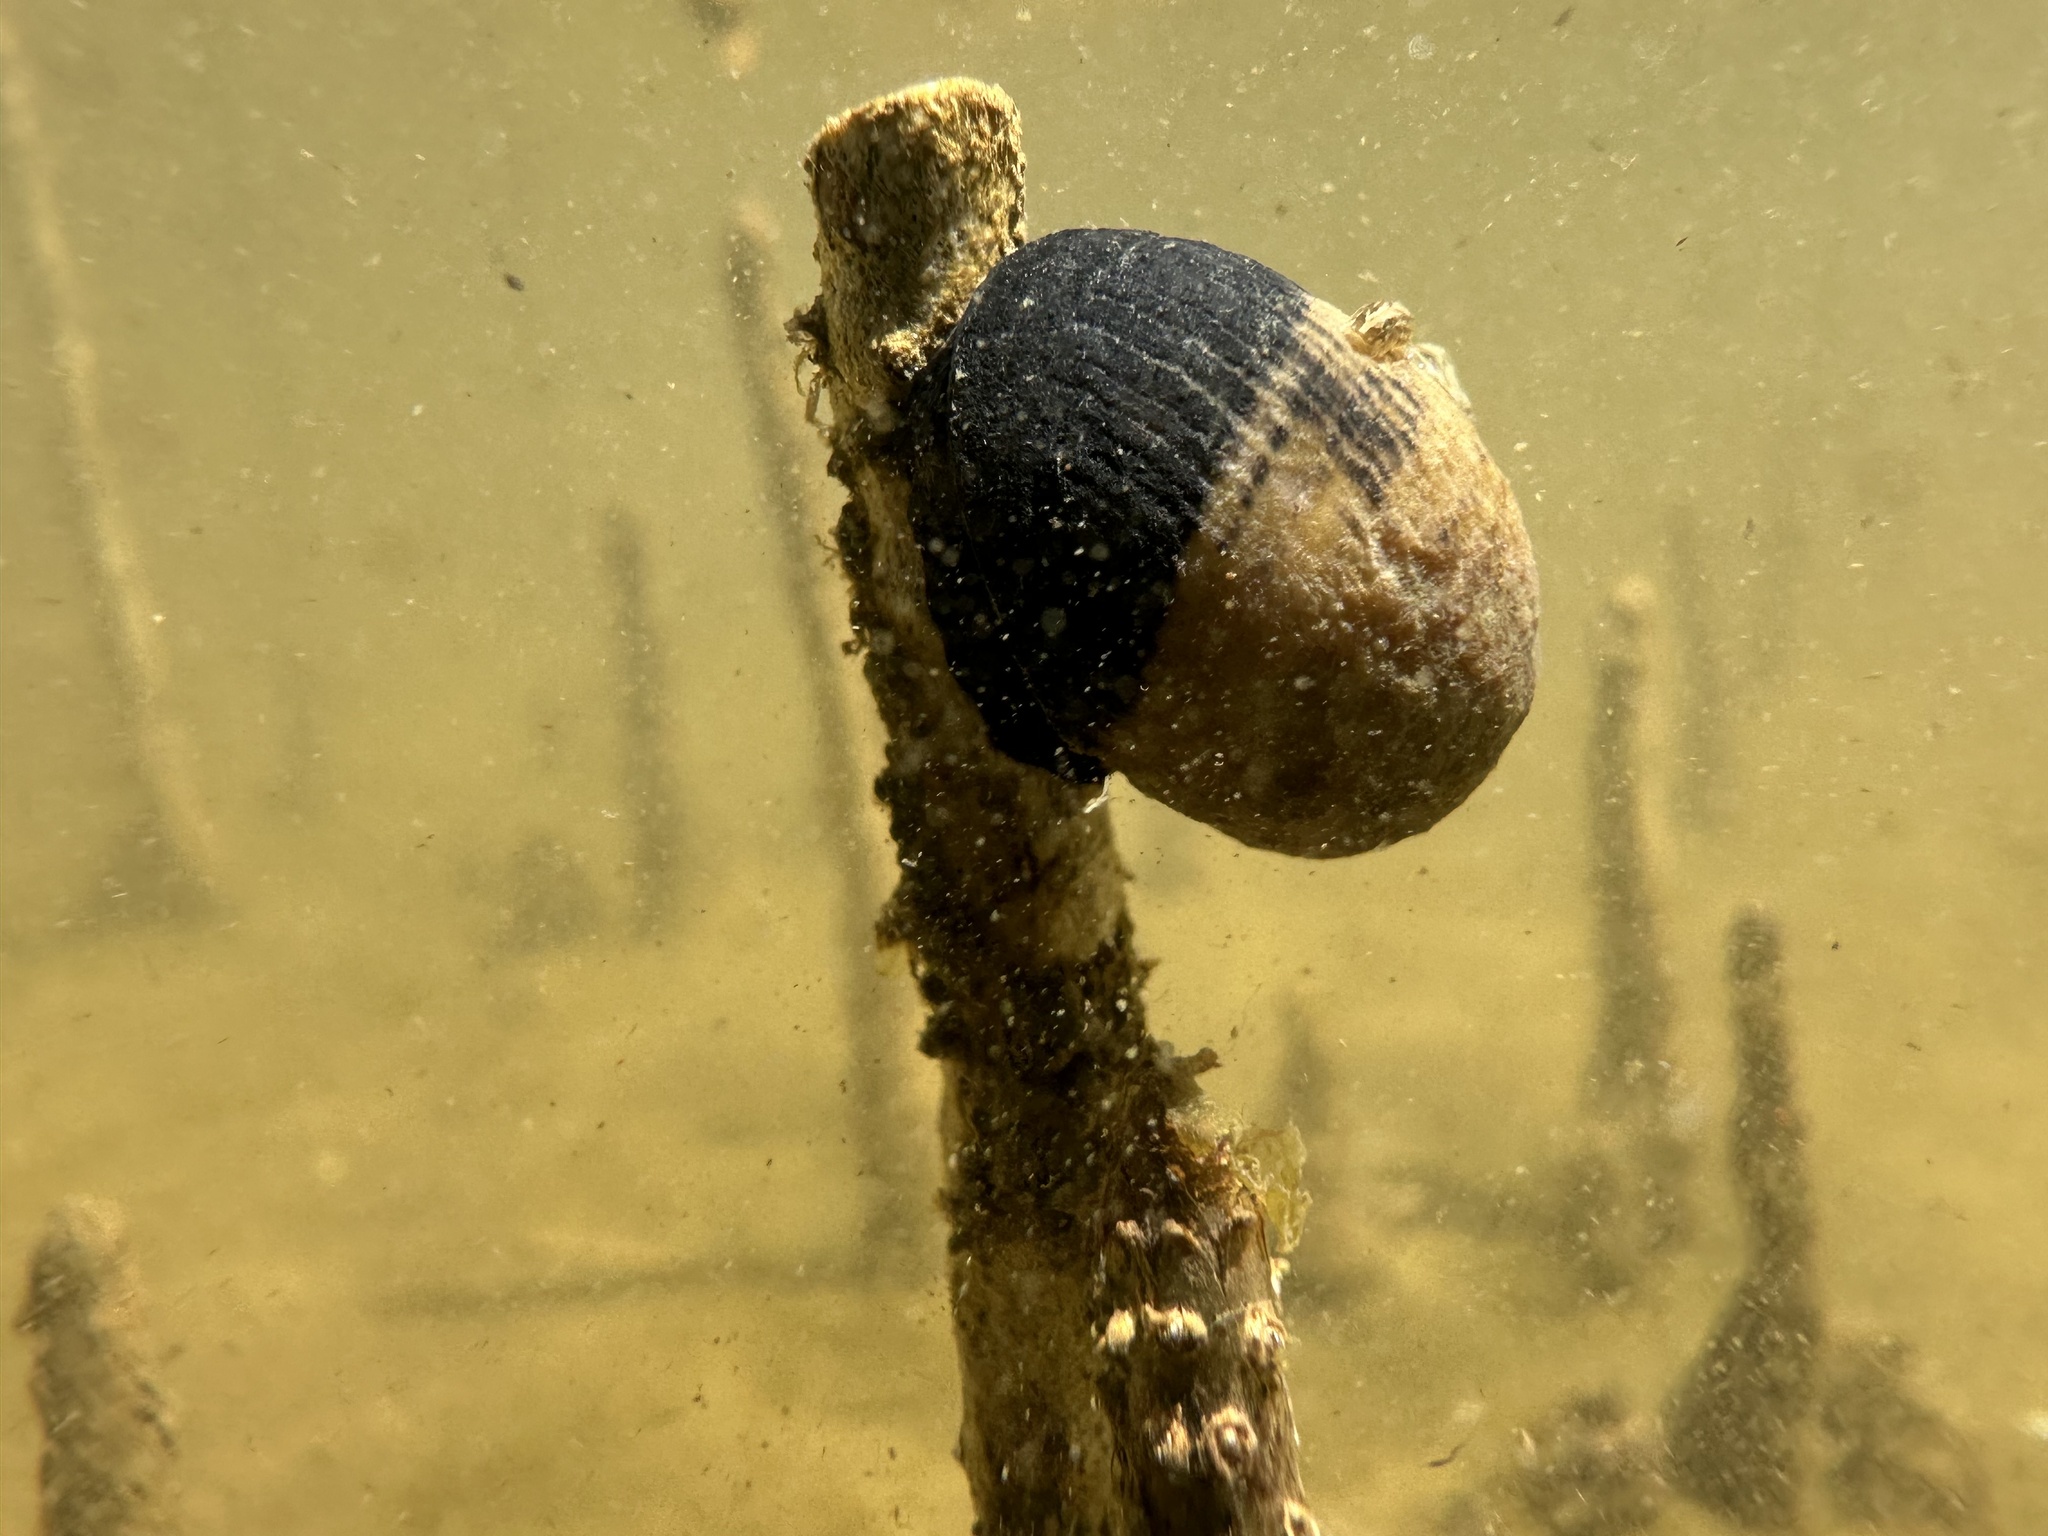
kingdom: Animalia
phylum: Mollusca
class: Gastropoda
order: Cycloneritida
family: Neritidae
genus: Nerita
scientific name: Nerita melanotragus
